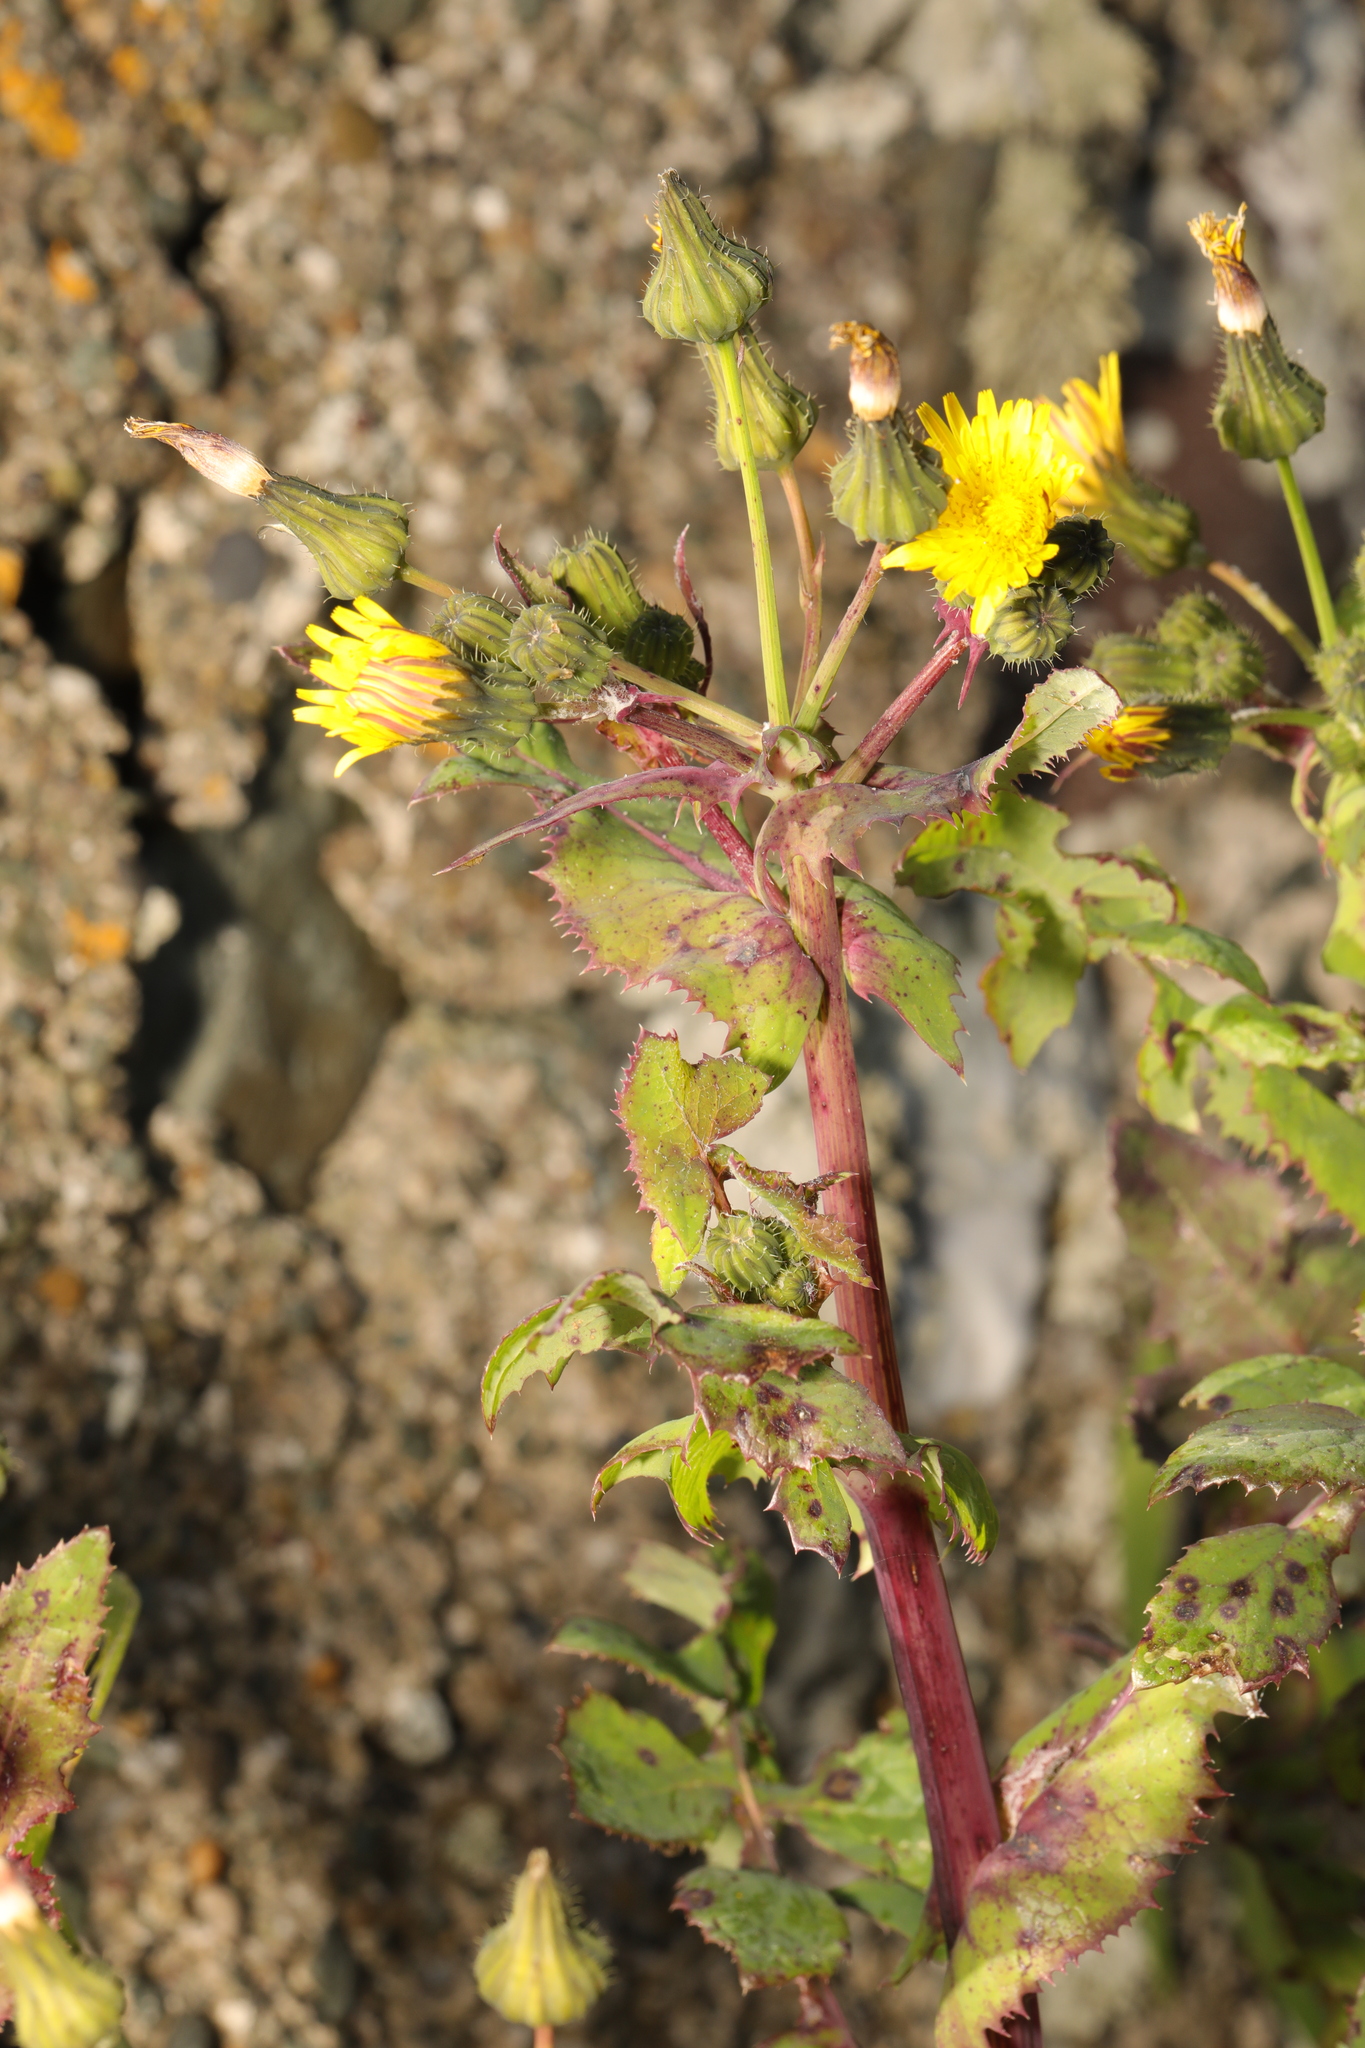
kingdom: Plantae
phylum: Tracheophyta
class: Magnoliopsida
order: Asterales
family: Asteraceae
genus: Sonchus
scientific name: Sonchus oleraceus
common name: Common sowthistle
